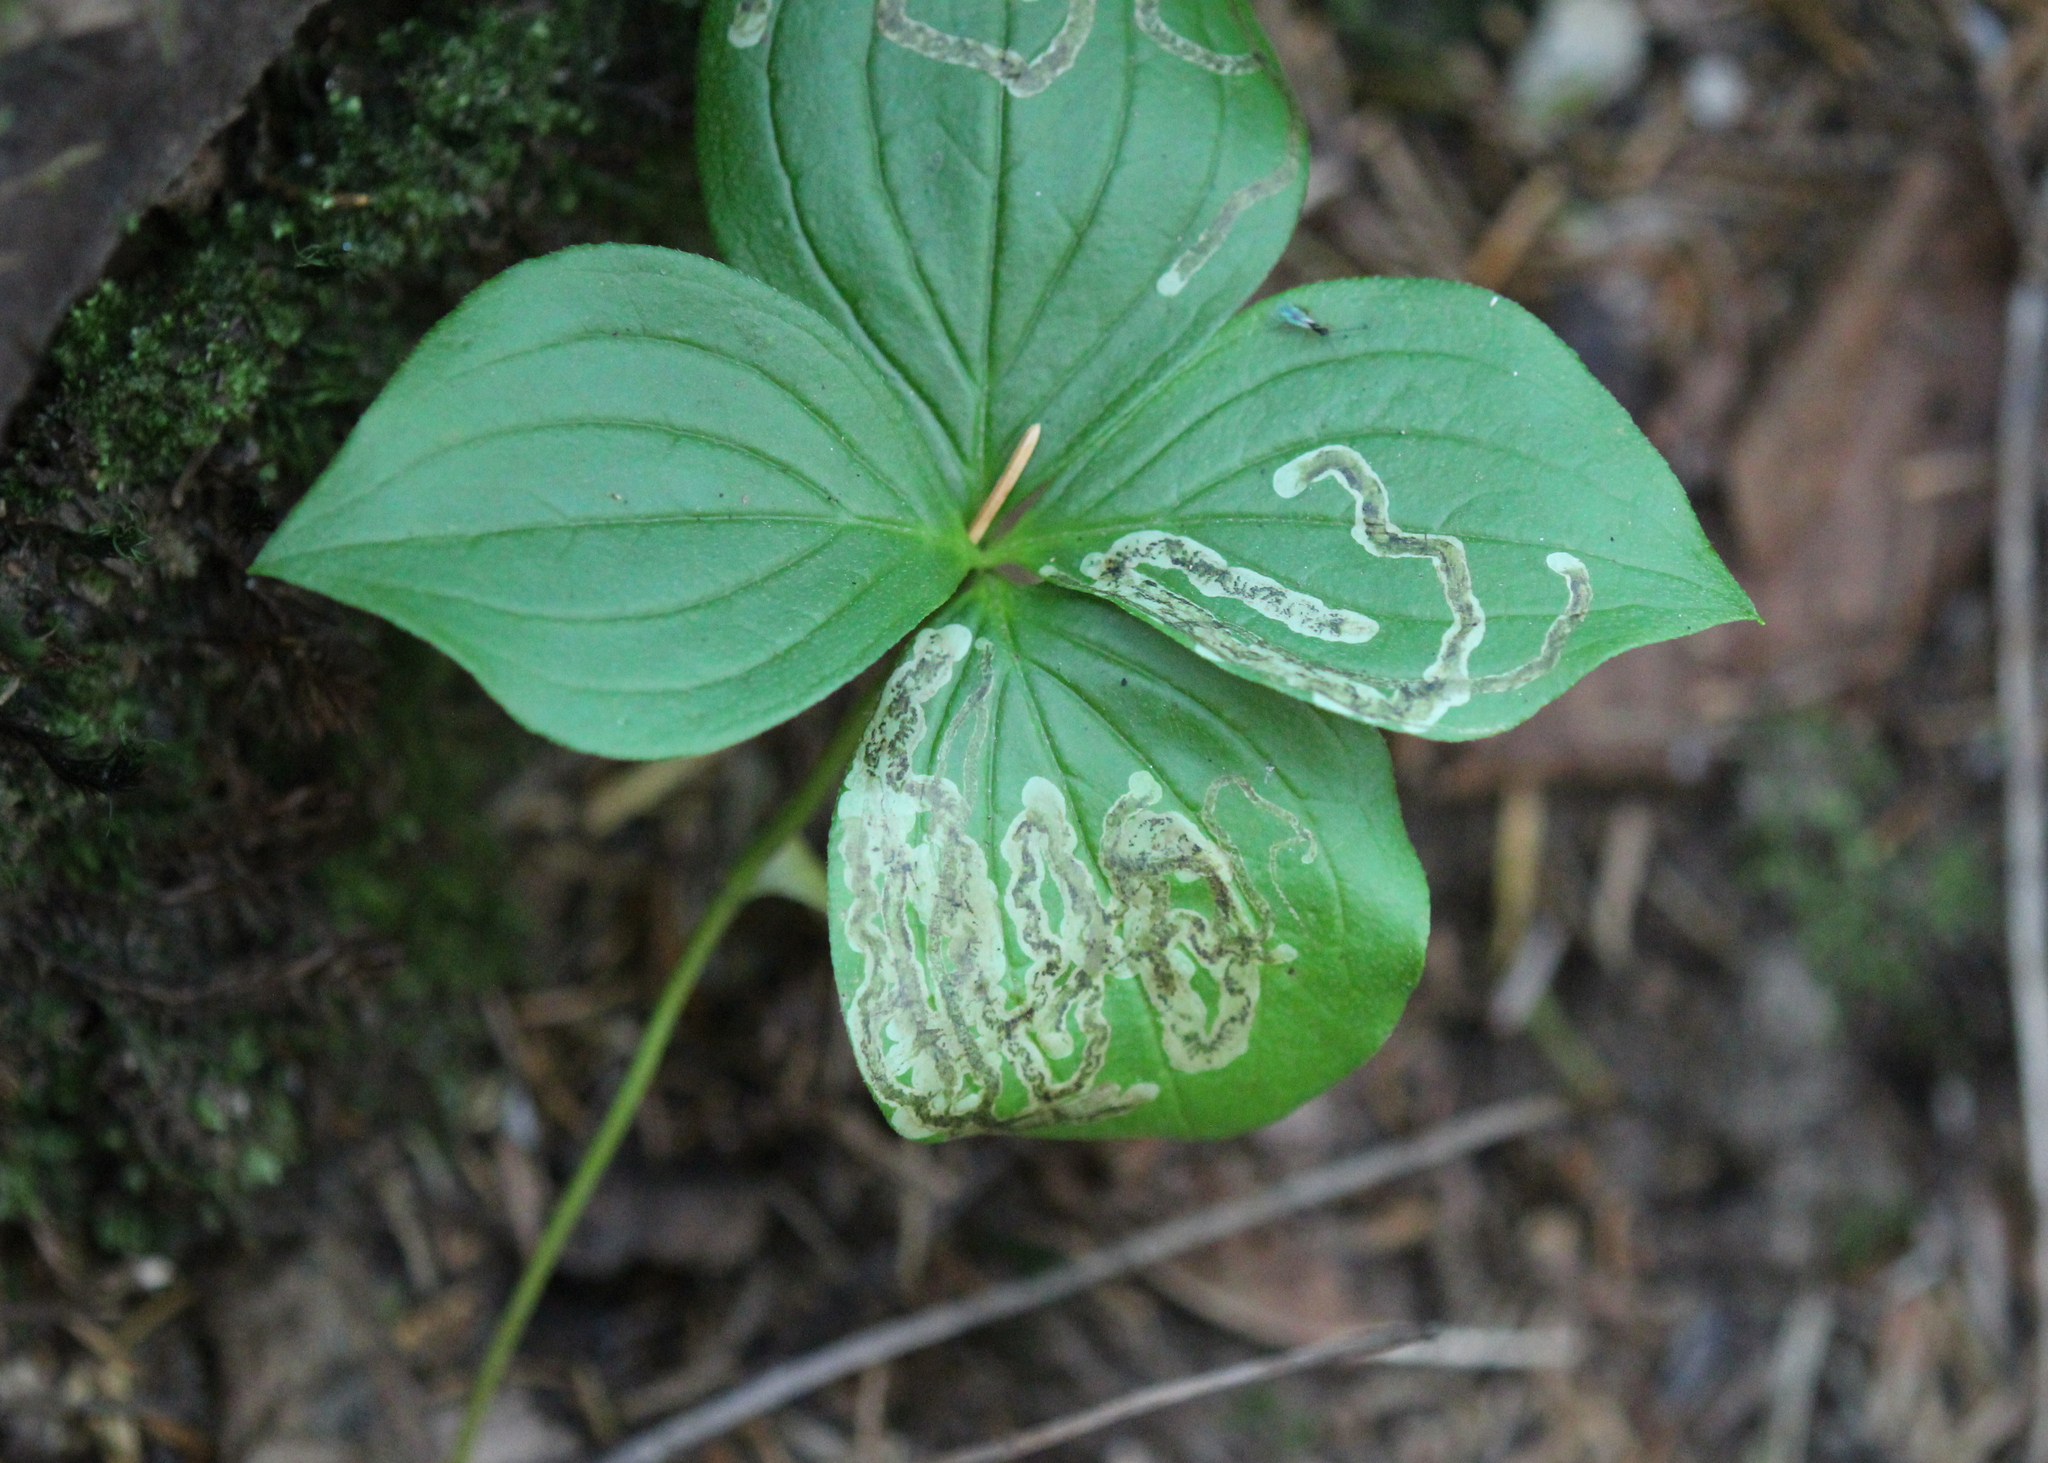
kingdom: Animalia
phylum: Arthropoda
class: Insecta
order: Diptera
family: Agromyzidae
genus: Phytomyza
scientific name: Phytomyza agromyzina
